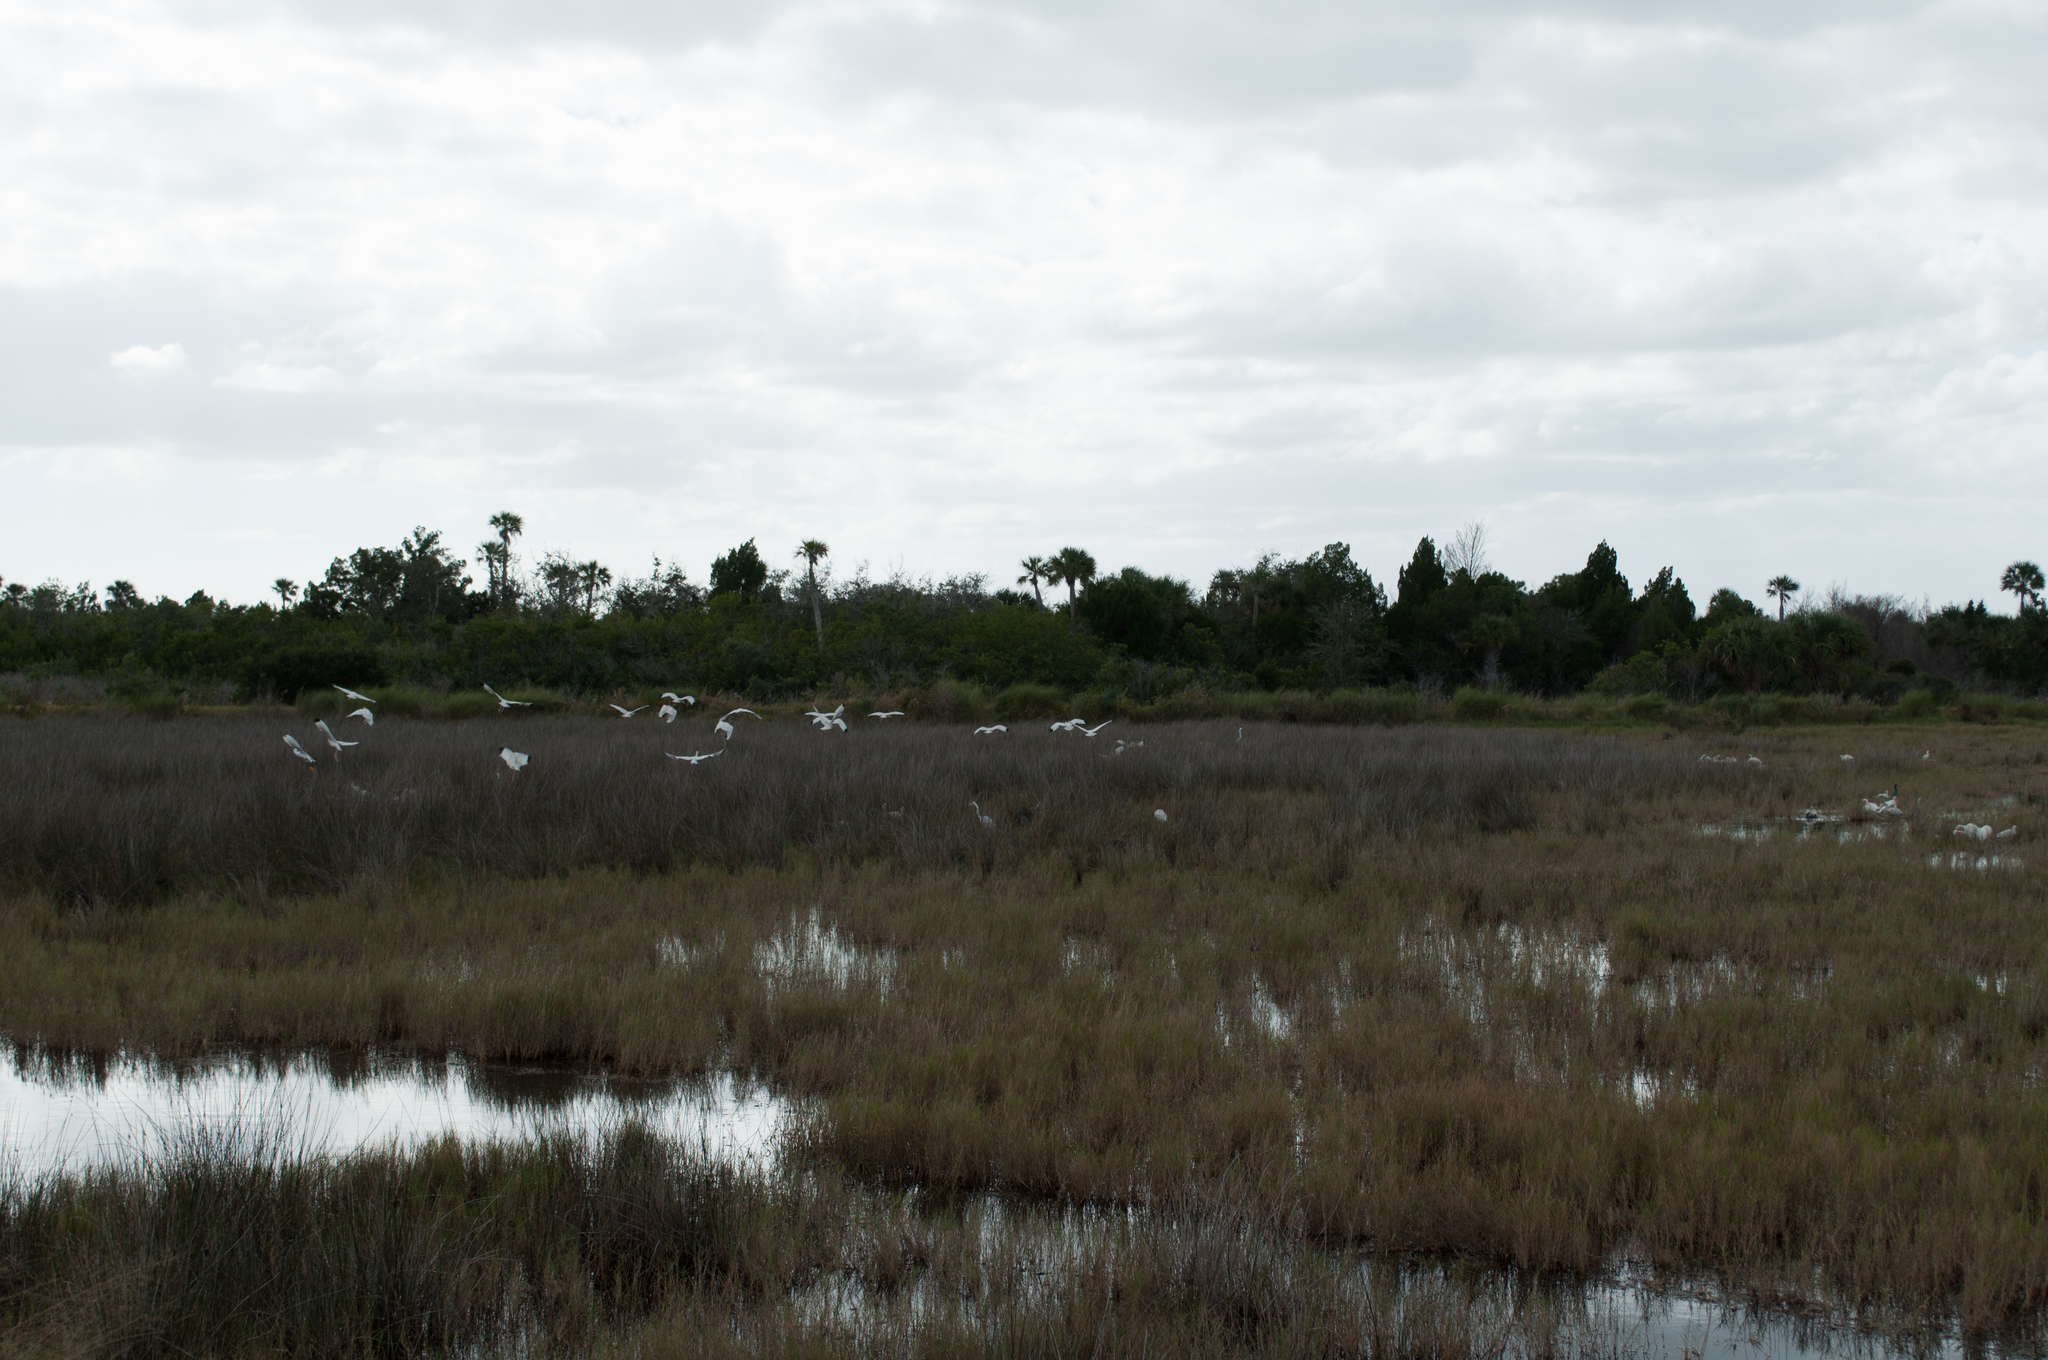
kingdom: Animalia
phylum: Chordata
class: Aves
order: Pelecaniformes
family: Threskiornithidae
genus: Eudocimus
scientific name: Eudocimus albus
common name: White ibis
